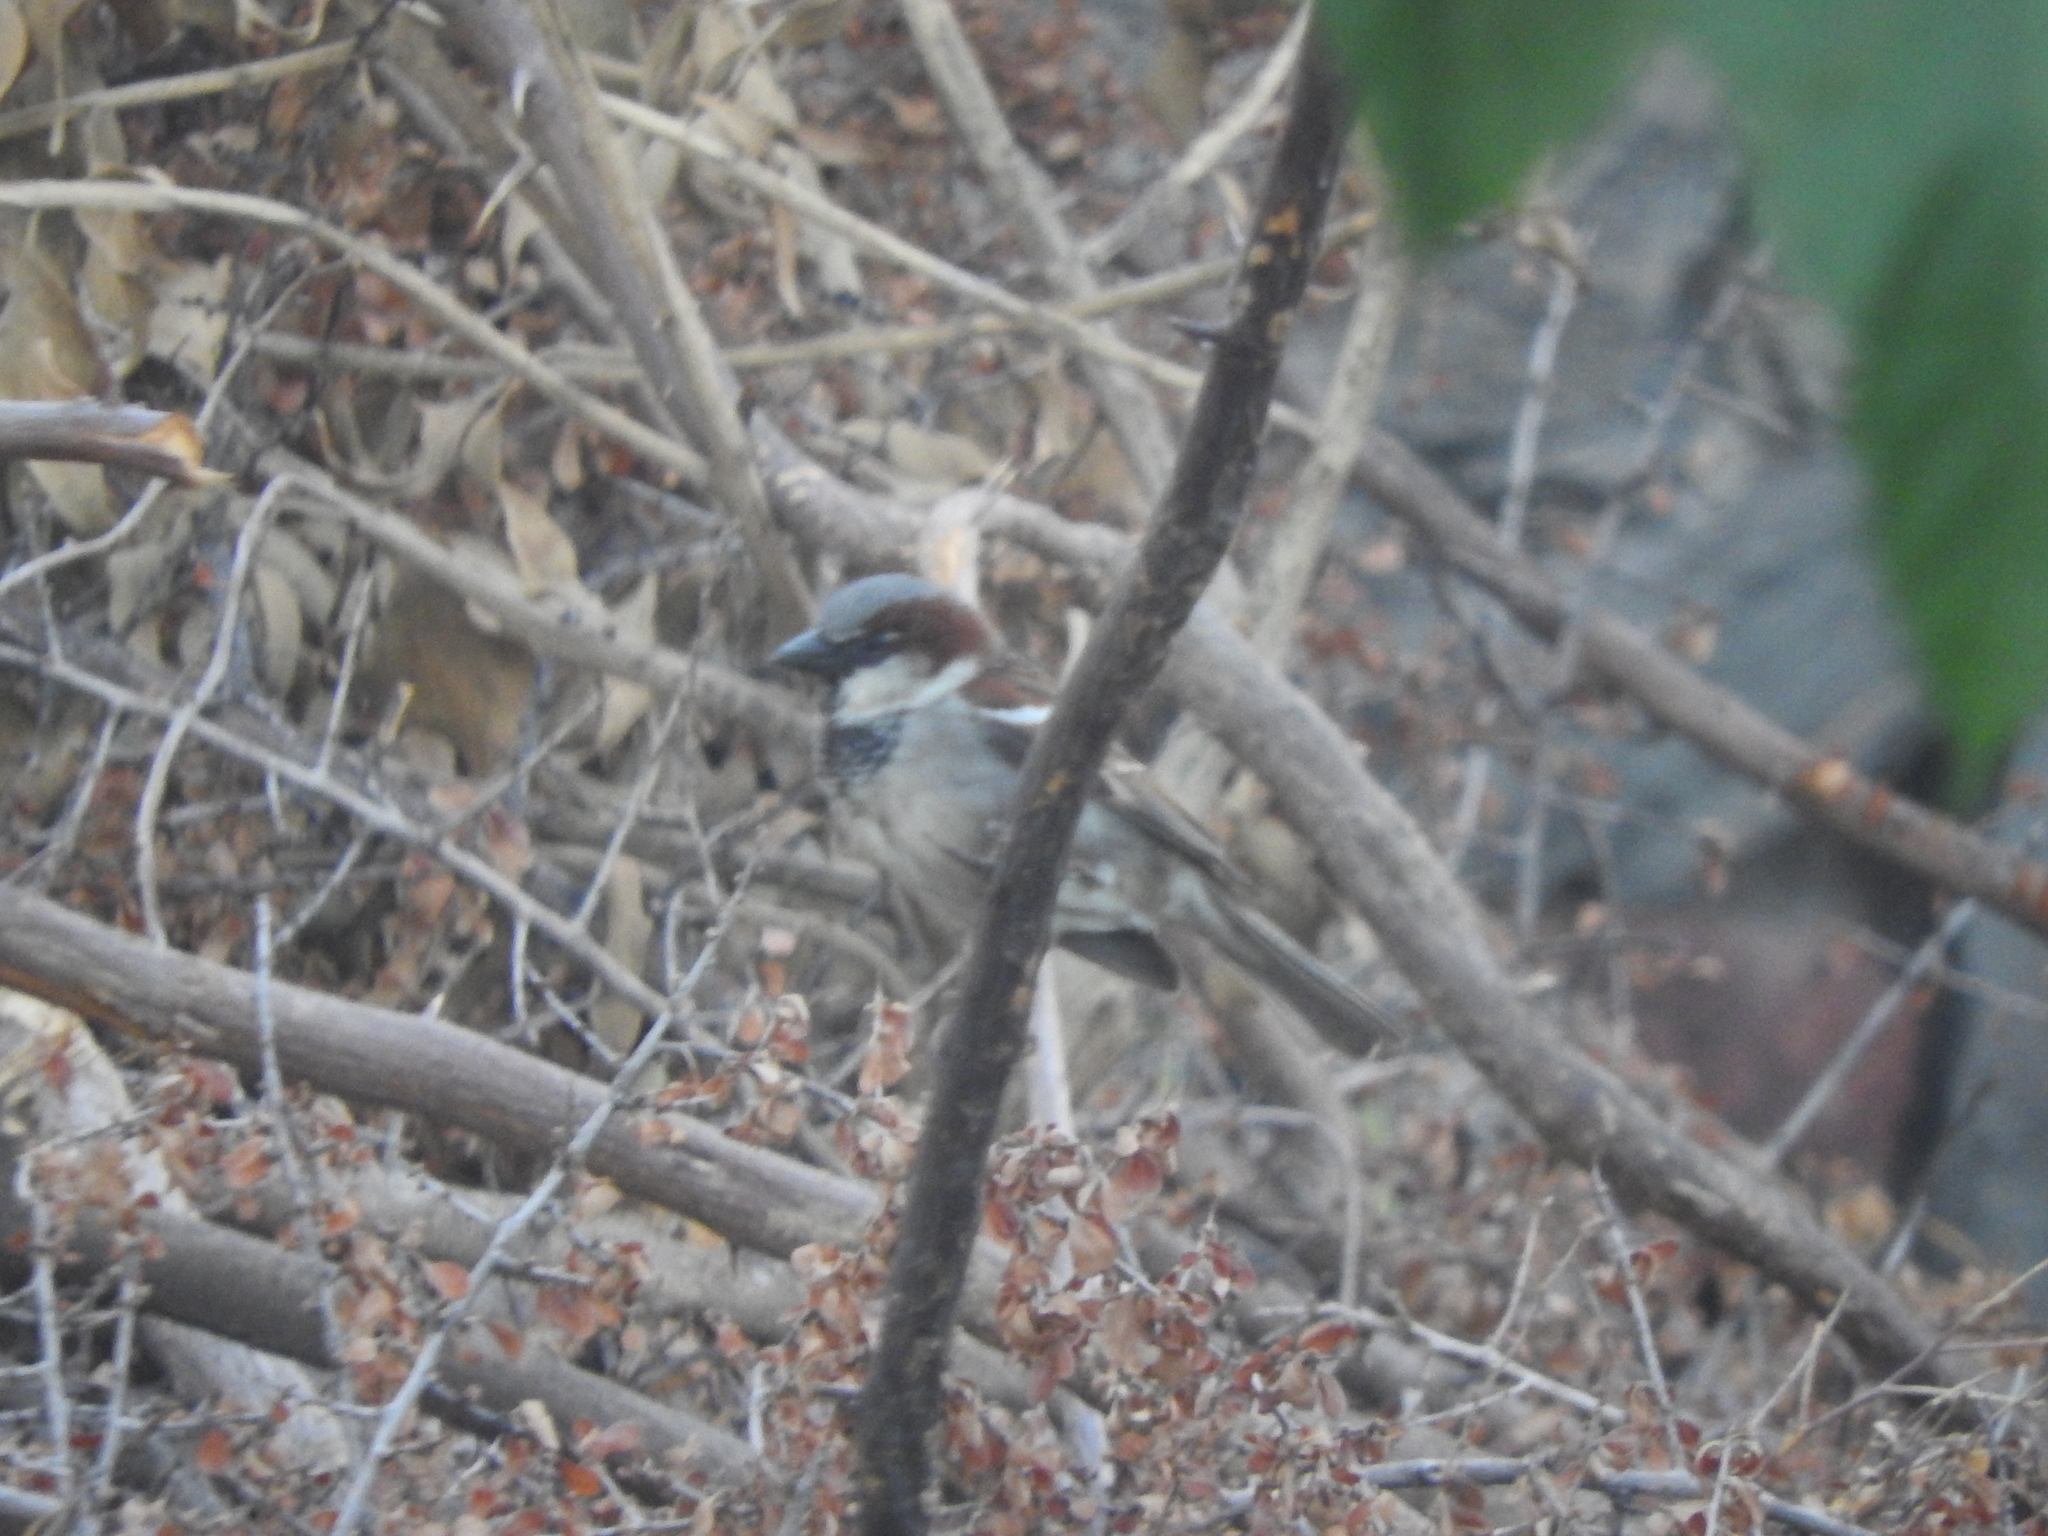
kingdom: Animalia
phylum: Chordata
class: Aves
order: Passeriformes
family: Passeridae
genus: Passer
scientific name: Passer domesticus
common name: House sparrow
